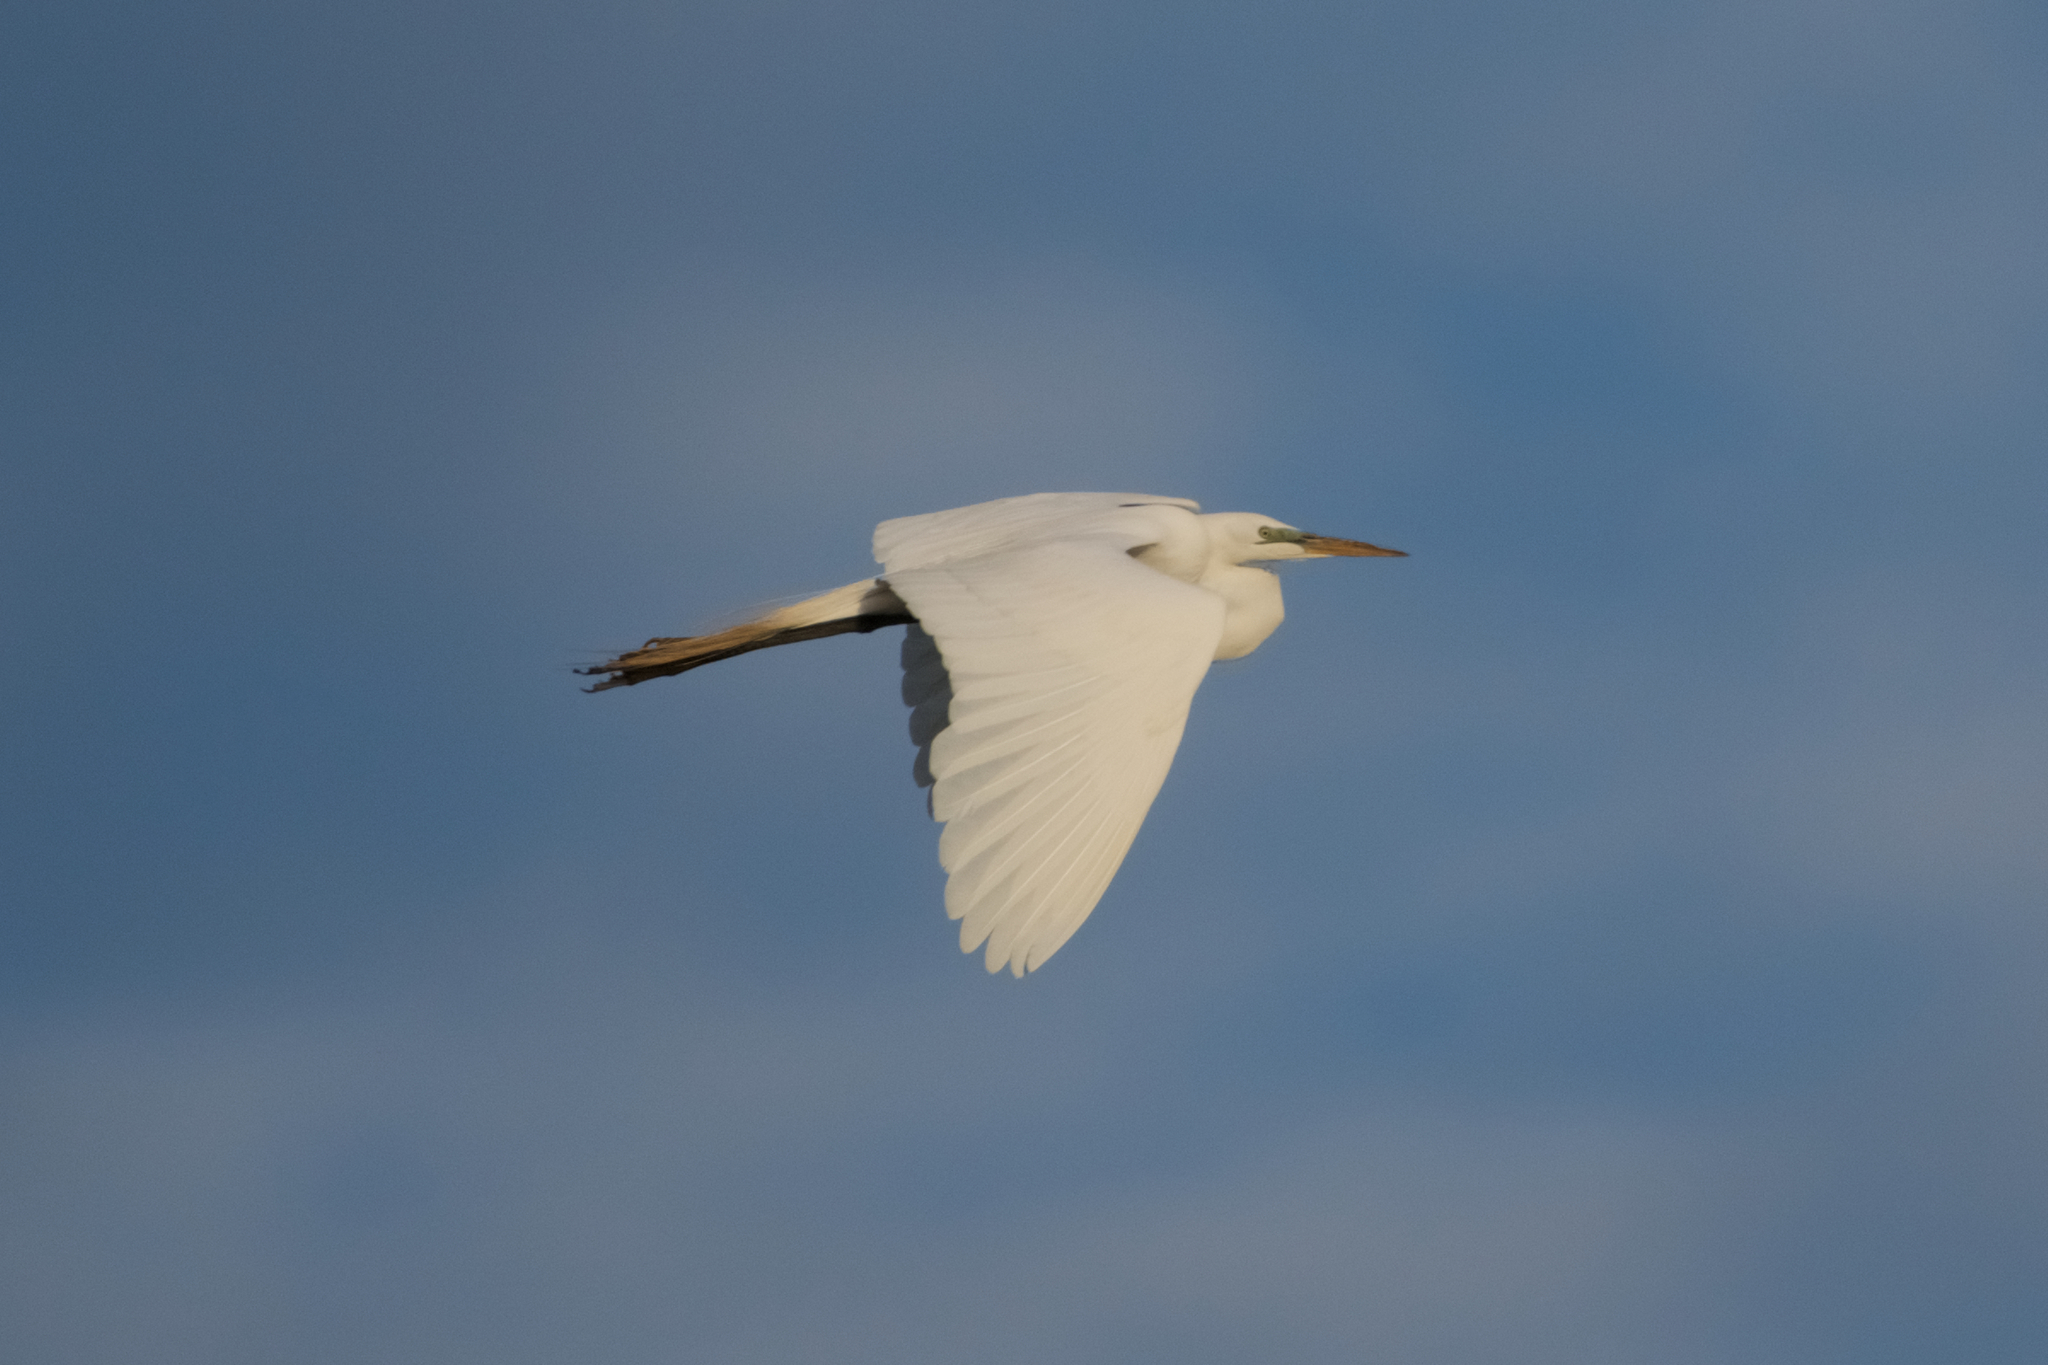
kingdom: Animalia
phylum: Chordata
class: Aves
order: Pelecaniformes
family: Ardeidae
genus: Ardea
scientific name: Ardea alba
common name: Great egret
